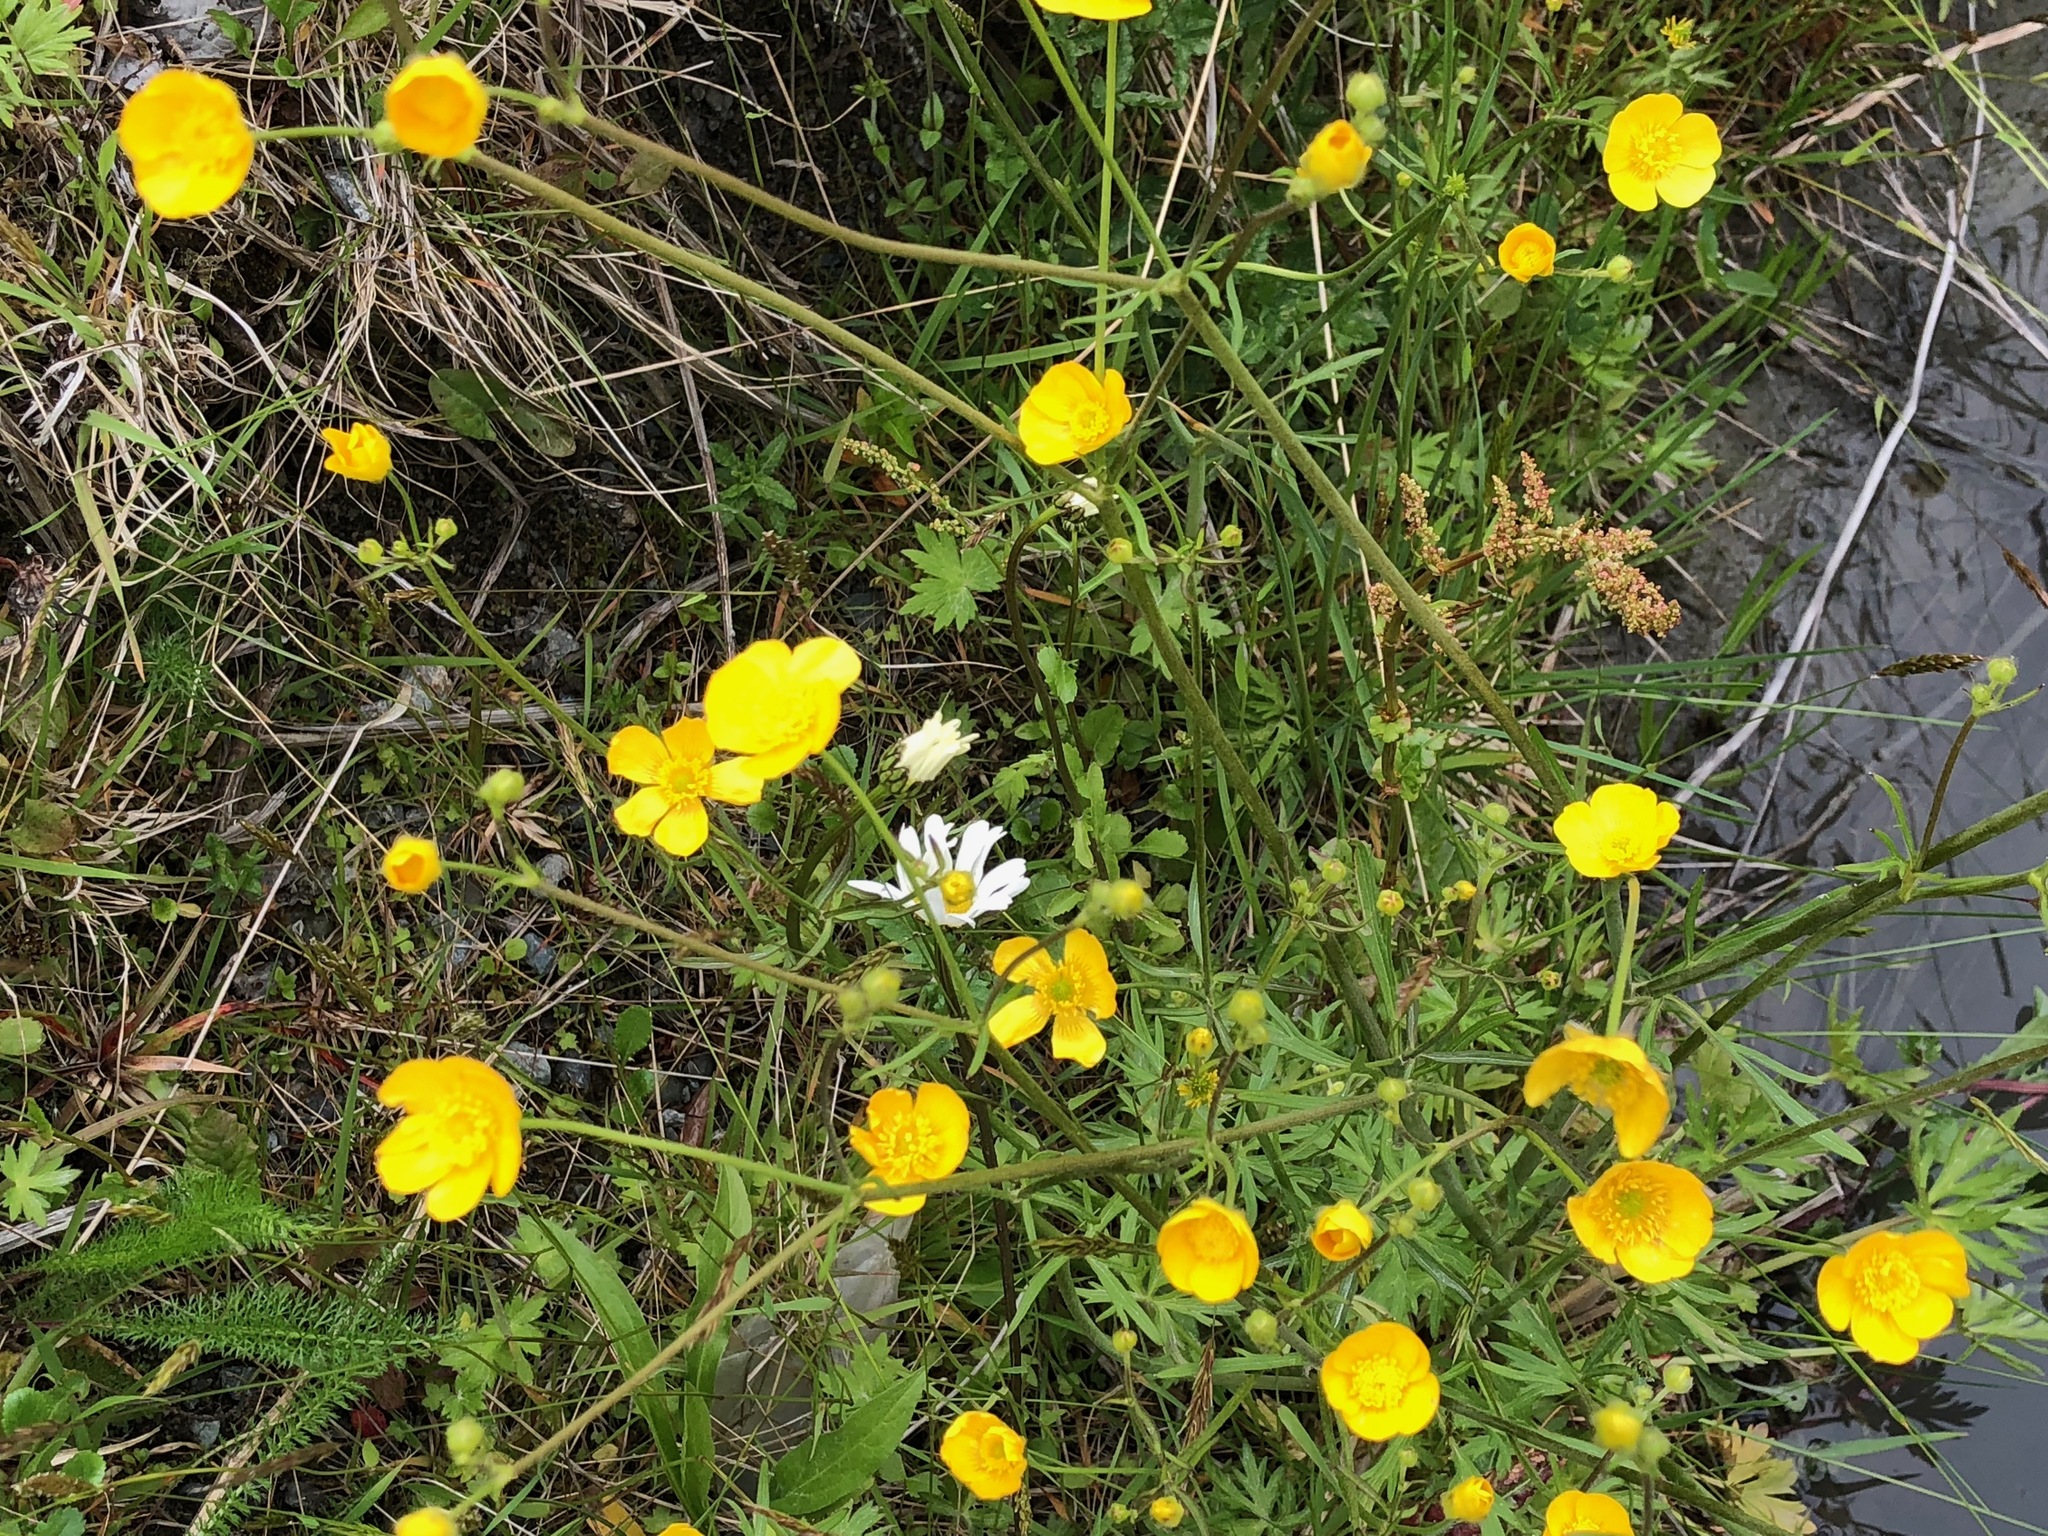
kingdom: Plantae
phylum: Tracheophyta
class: Magnoliopsida
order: Ranunculales
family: Ranunculaceae
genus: Ranunculus
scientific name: Ranunculus acris
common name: Meadow buttercup
